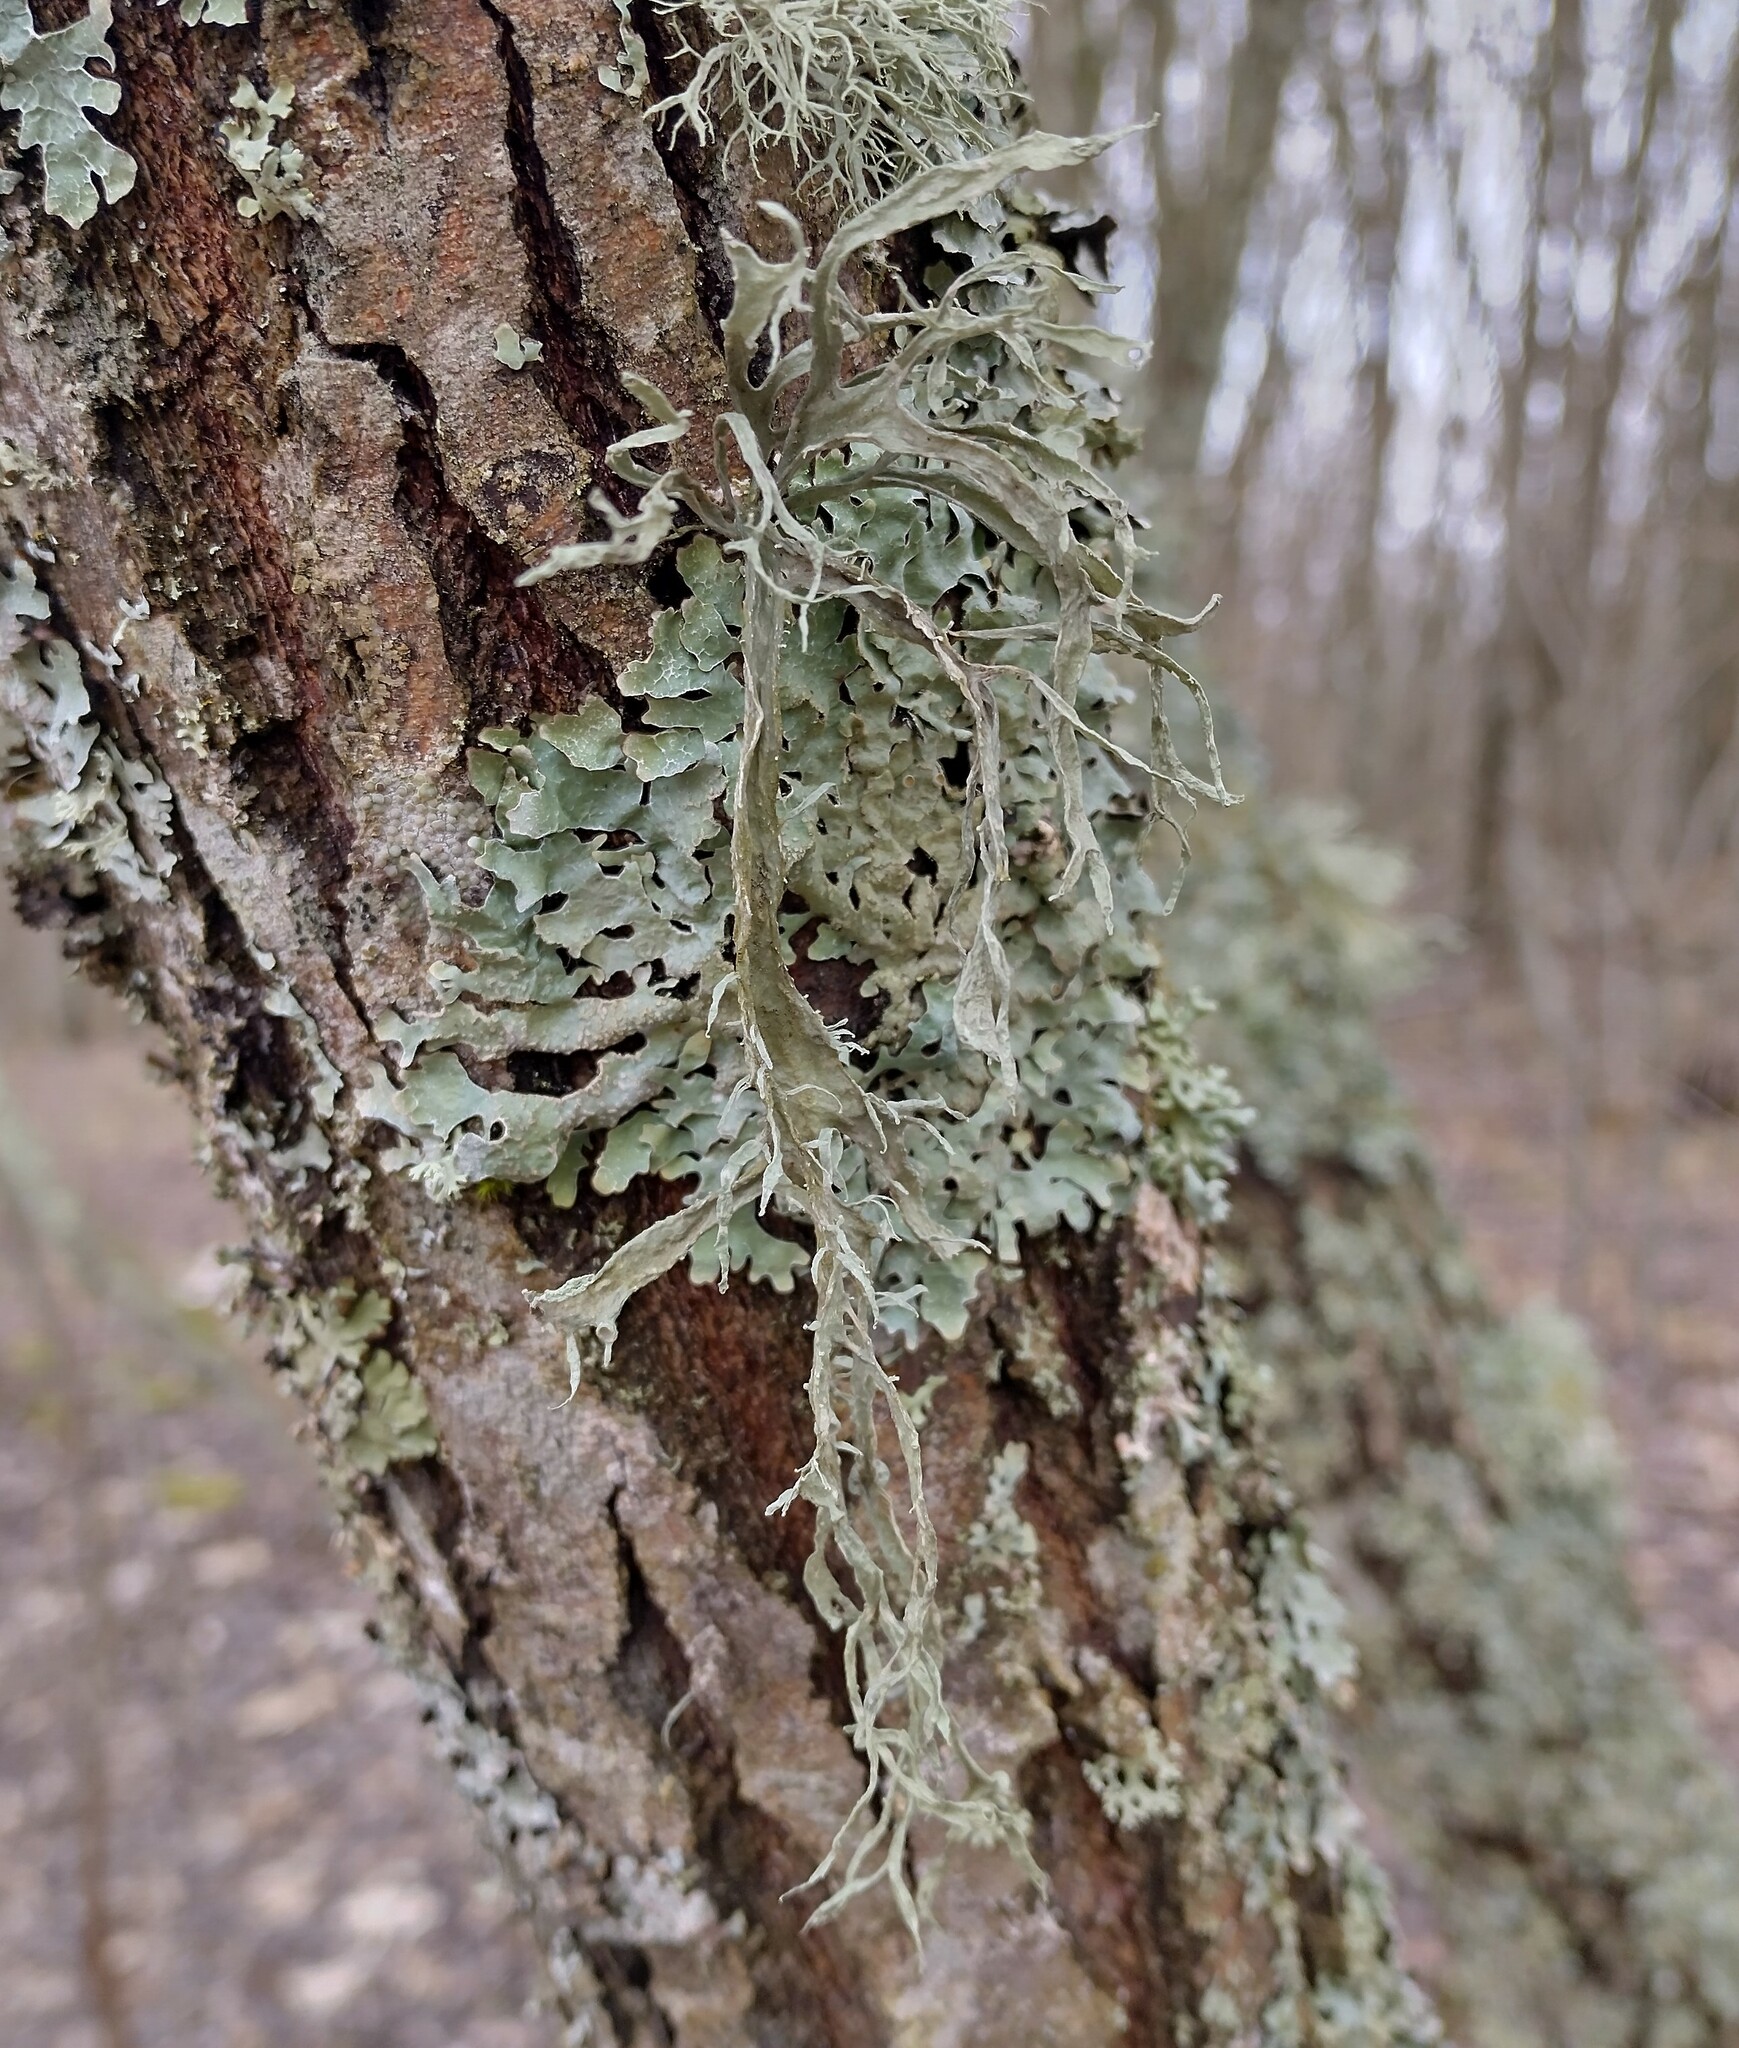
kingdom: Fungi
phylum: Ascomycota
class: Lecanoromycetes
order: Lecanorales
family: Ramalinaceae
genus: Ramalina
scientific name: Ramalina fraxinea
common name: Cartilage lichen
